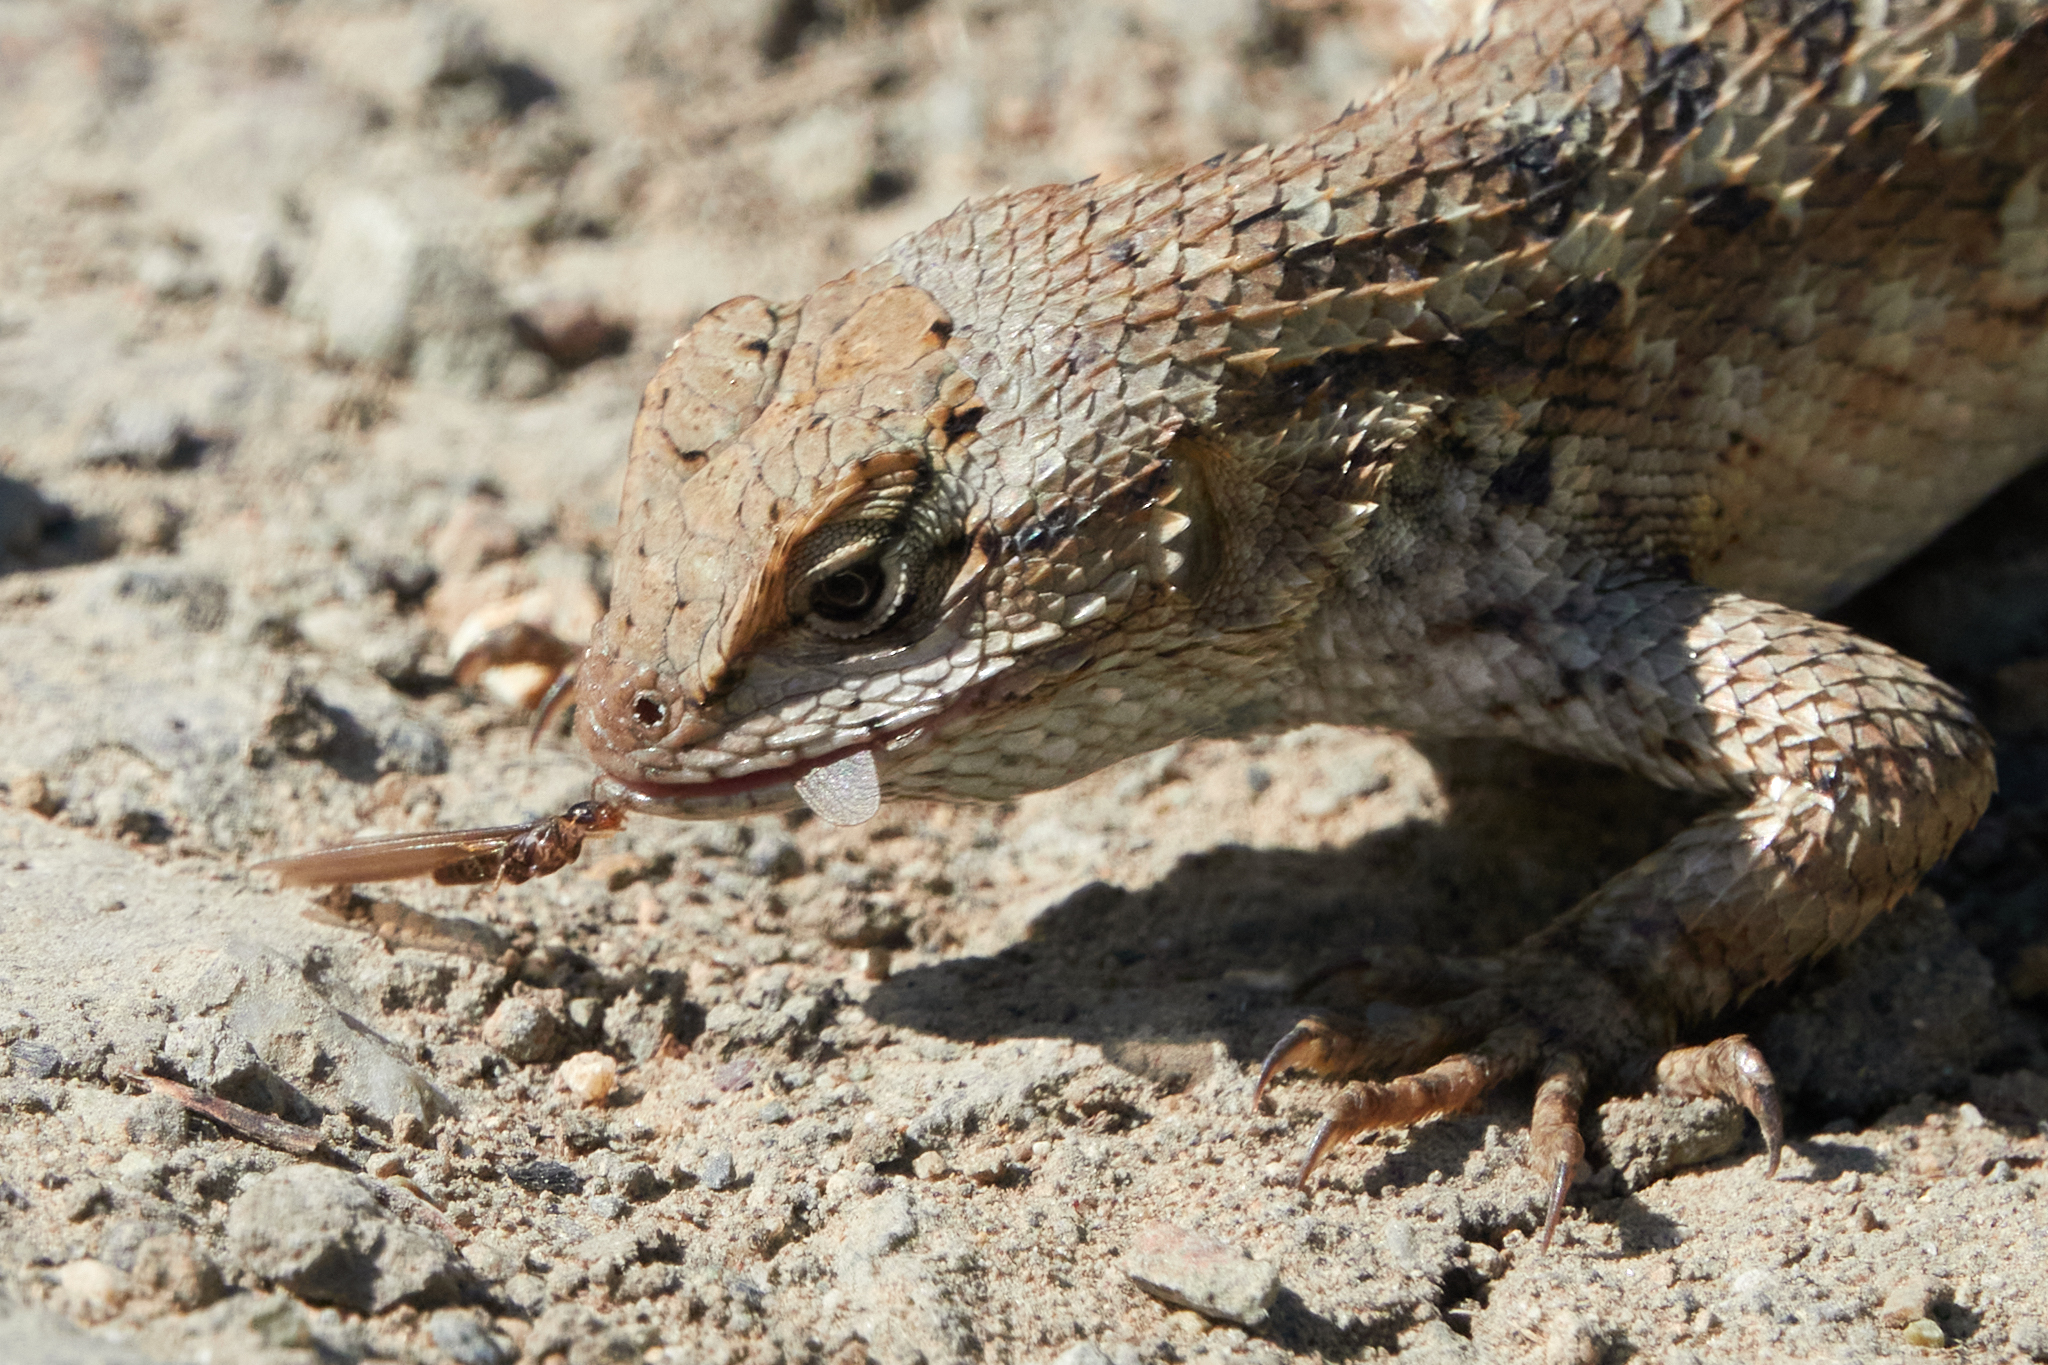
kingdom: Animalia
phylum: Chordata
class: Squamata
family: Phrynosomatidae
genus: Sceloporus
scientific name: Sceloporus occidentalis
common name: Western fence lizard
